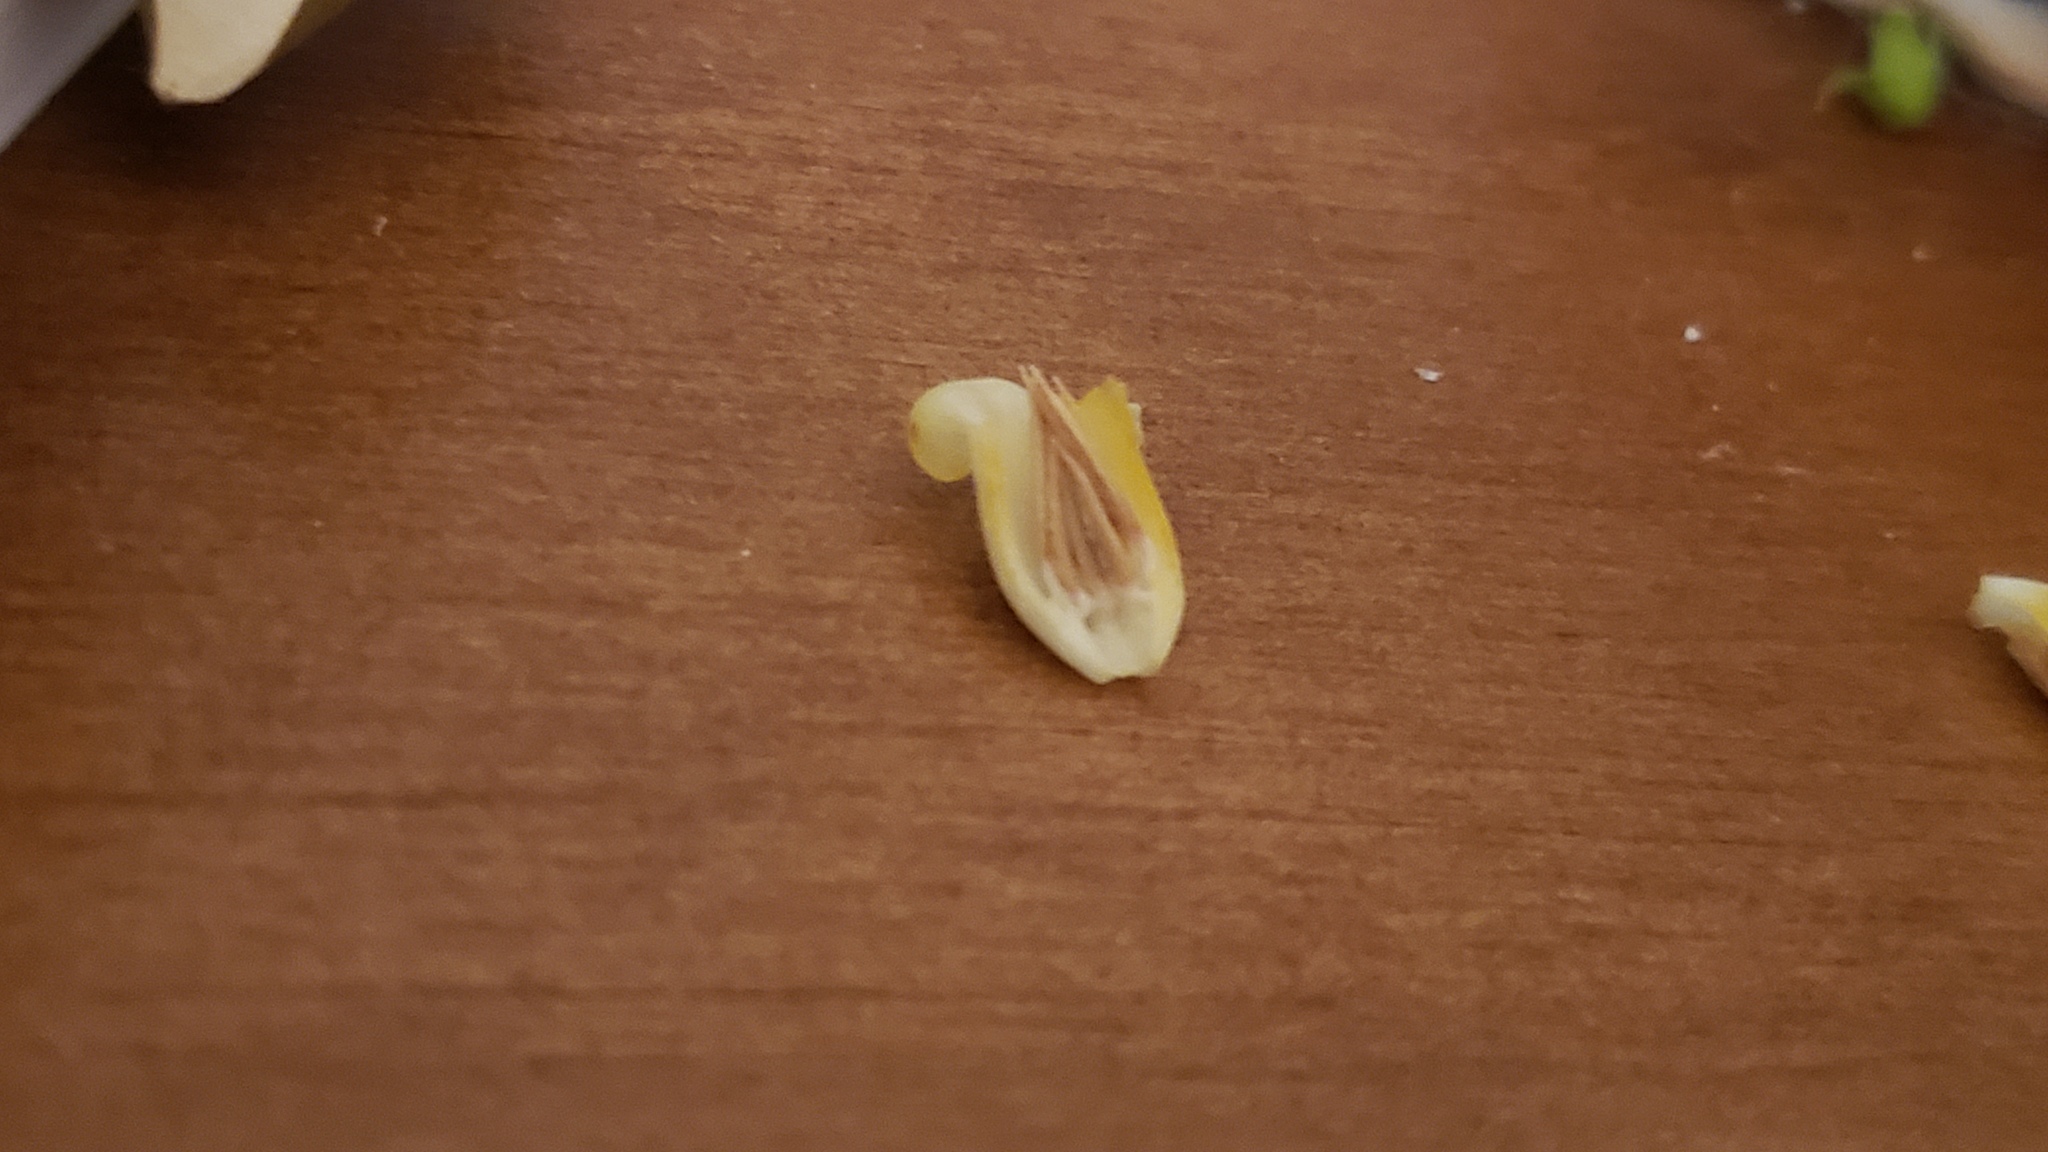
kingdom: Plantae
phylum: Tracheophyta
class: Magnoliopsida
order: Ericales
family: Ebenaceae
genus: Diospyros
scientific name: Diospyros virginiana
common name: Persimmon
